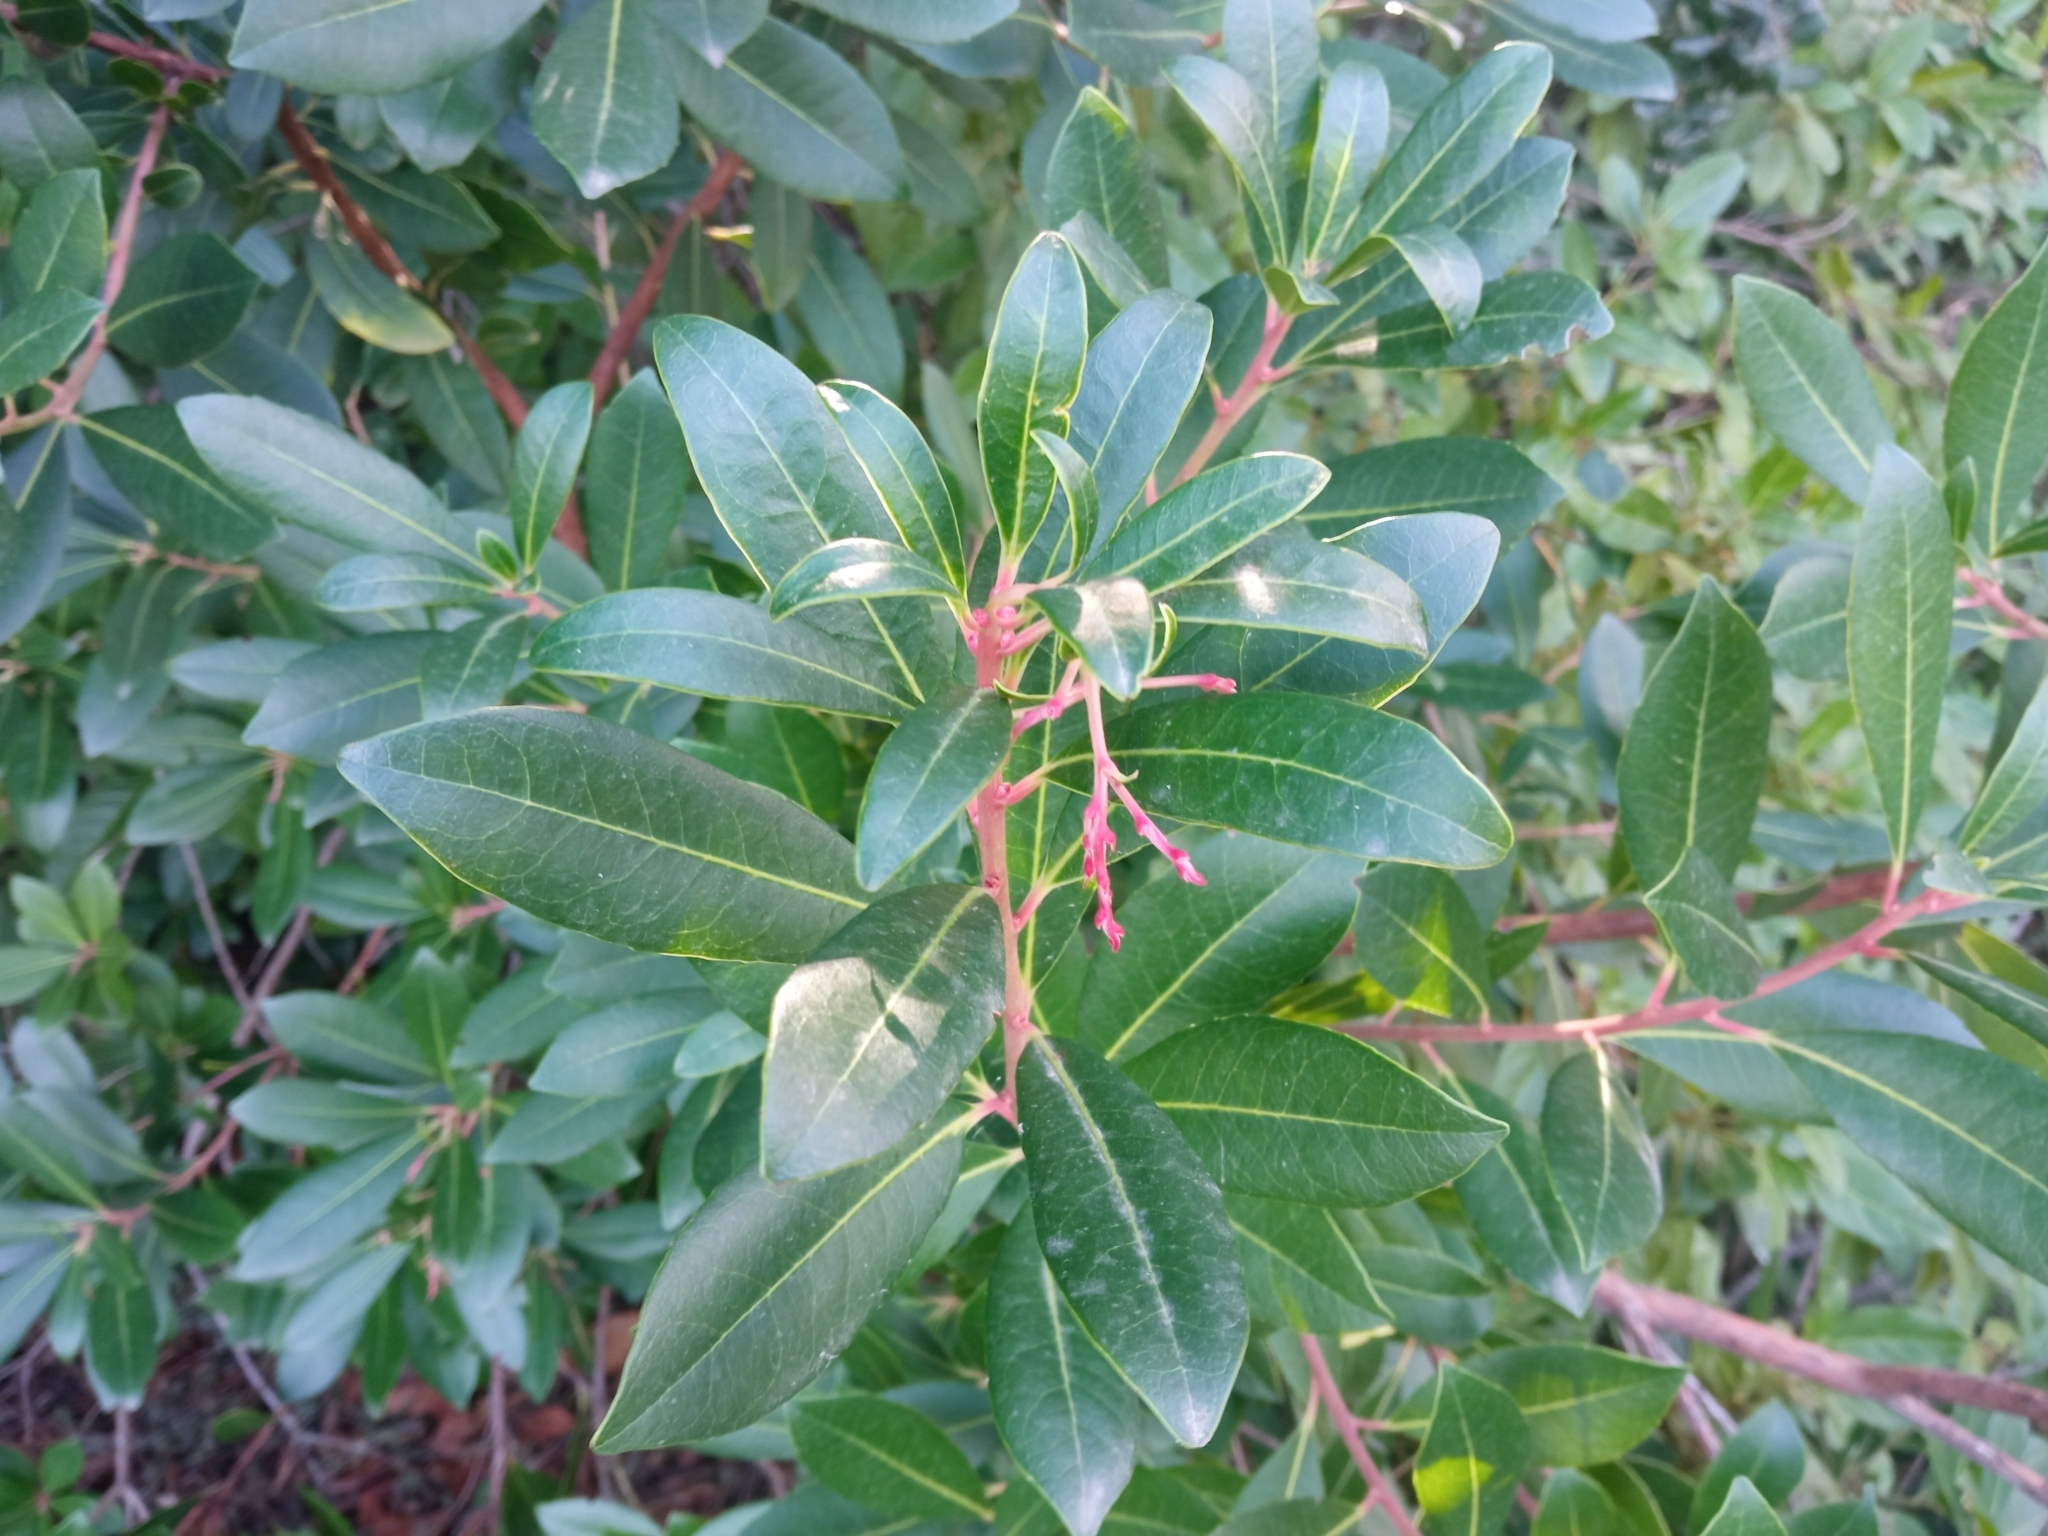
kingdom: Plantae
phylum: Tracheophyta
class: Magnoliopsida
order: Ericales
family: Ericaceae
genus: Arbutus
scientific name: Arbutus unedo
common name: Strawberry-tree
